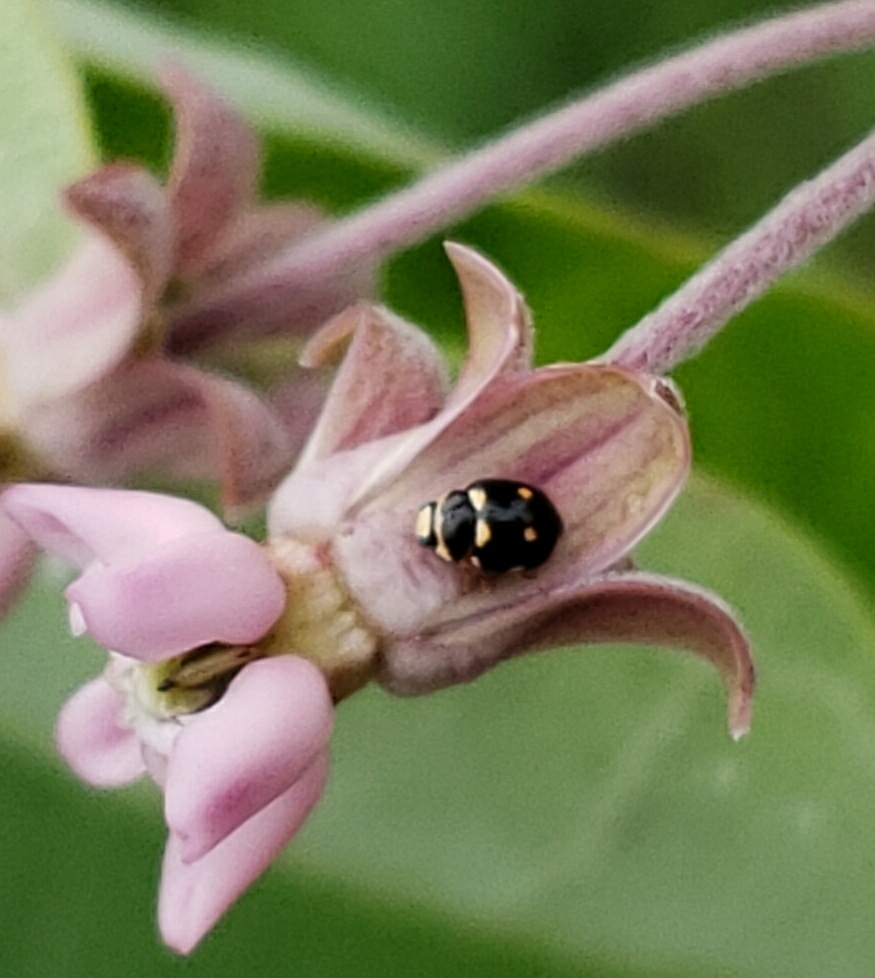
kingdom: Animalia
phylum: Arthropoda
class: Insecta
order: Coleoptera
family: Coccinellidae
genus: Brachiacantha
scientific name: Brachiacantha decempustulata
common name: Ten-spotted spurleg lady beetle
